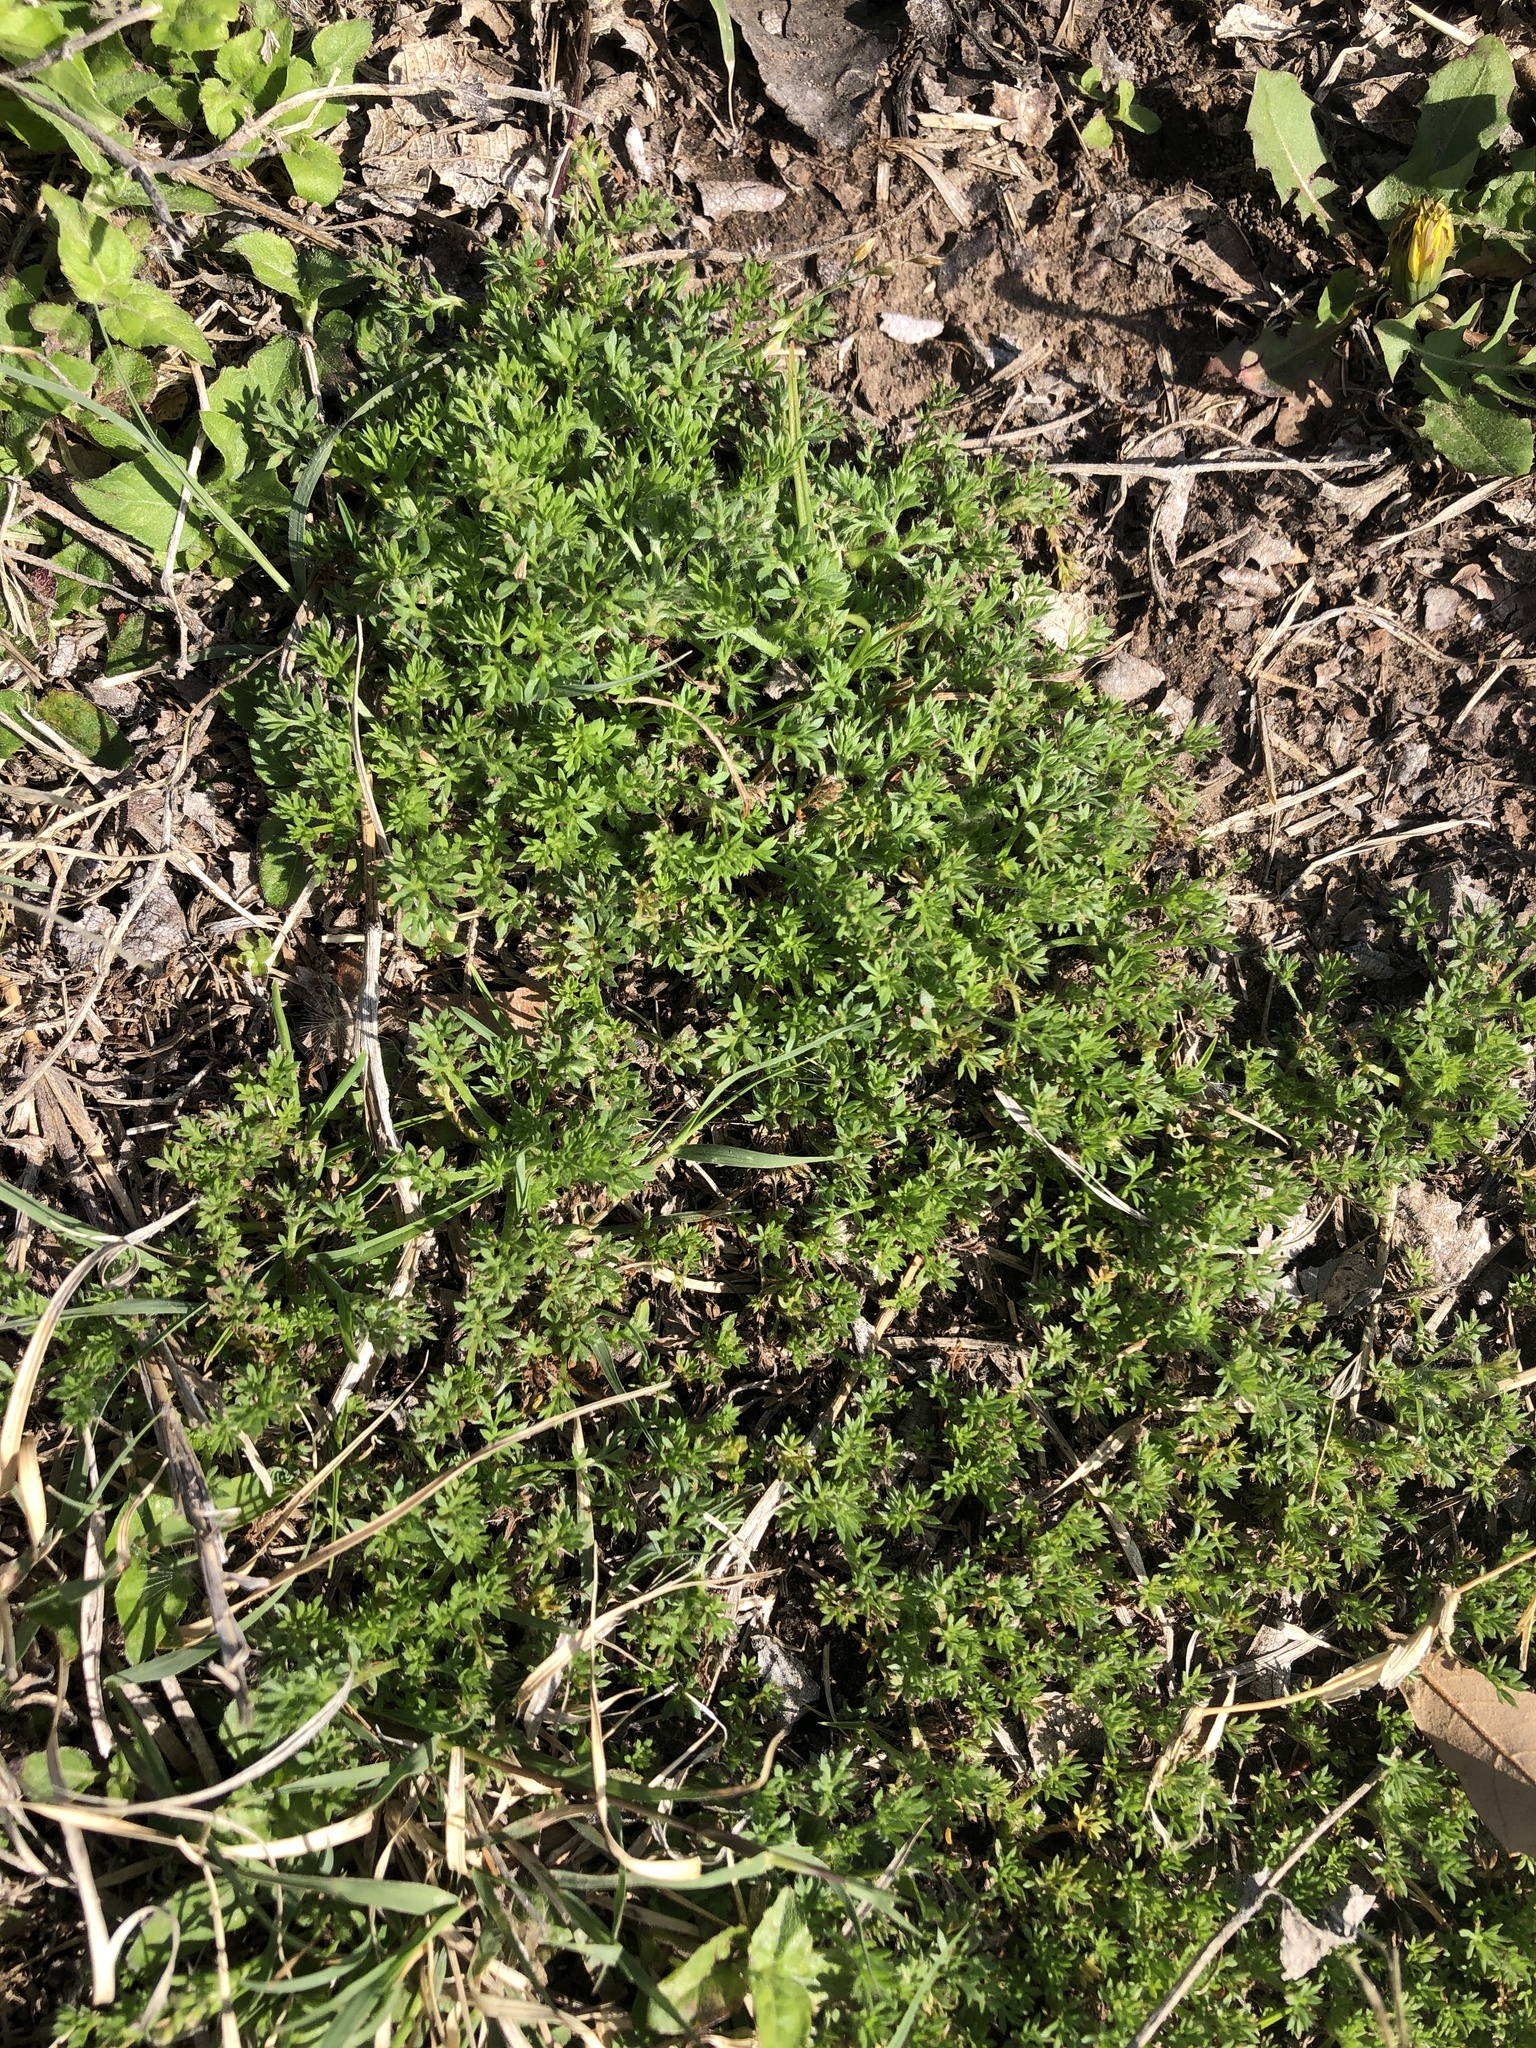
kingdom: Plantae
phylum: Tracheophyta
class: Magnoliopsida
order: Asterales
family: Asteraceae
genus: Soliva
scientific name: Soliva sessilis
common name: Field burrweed
